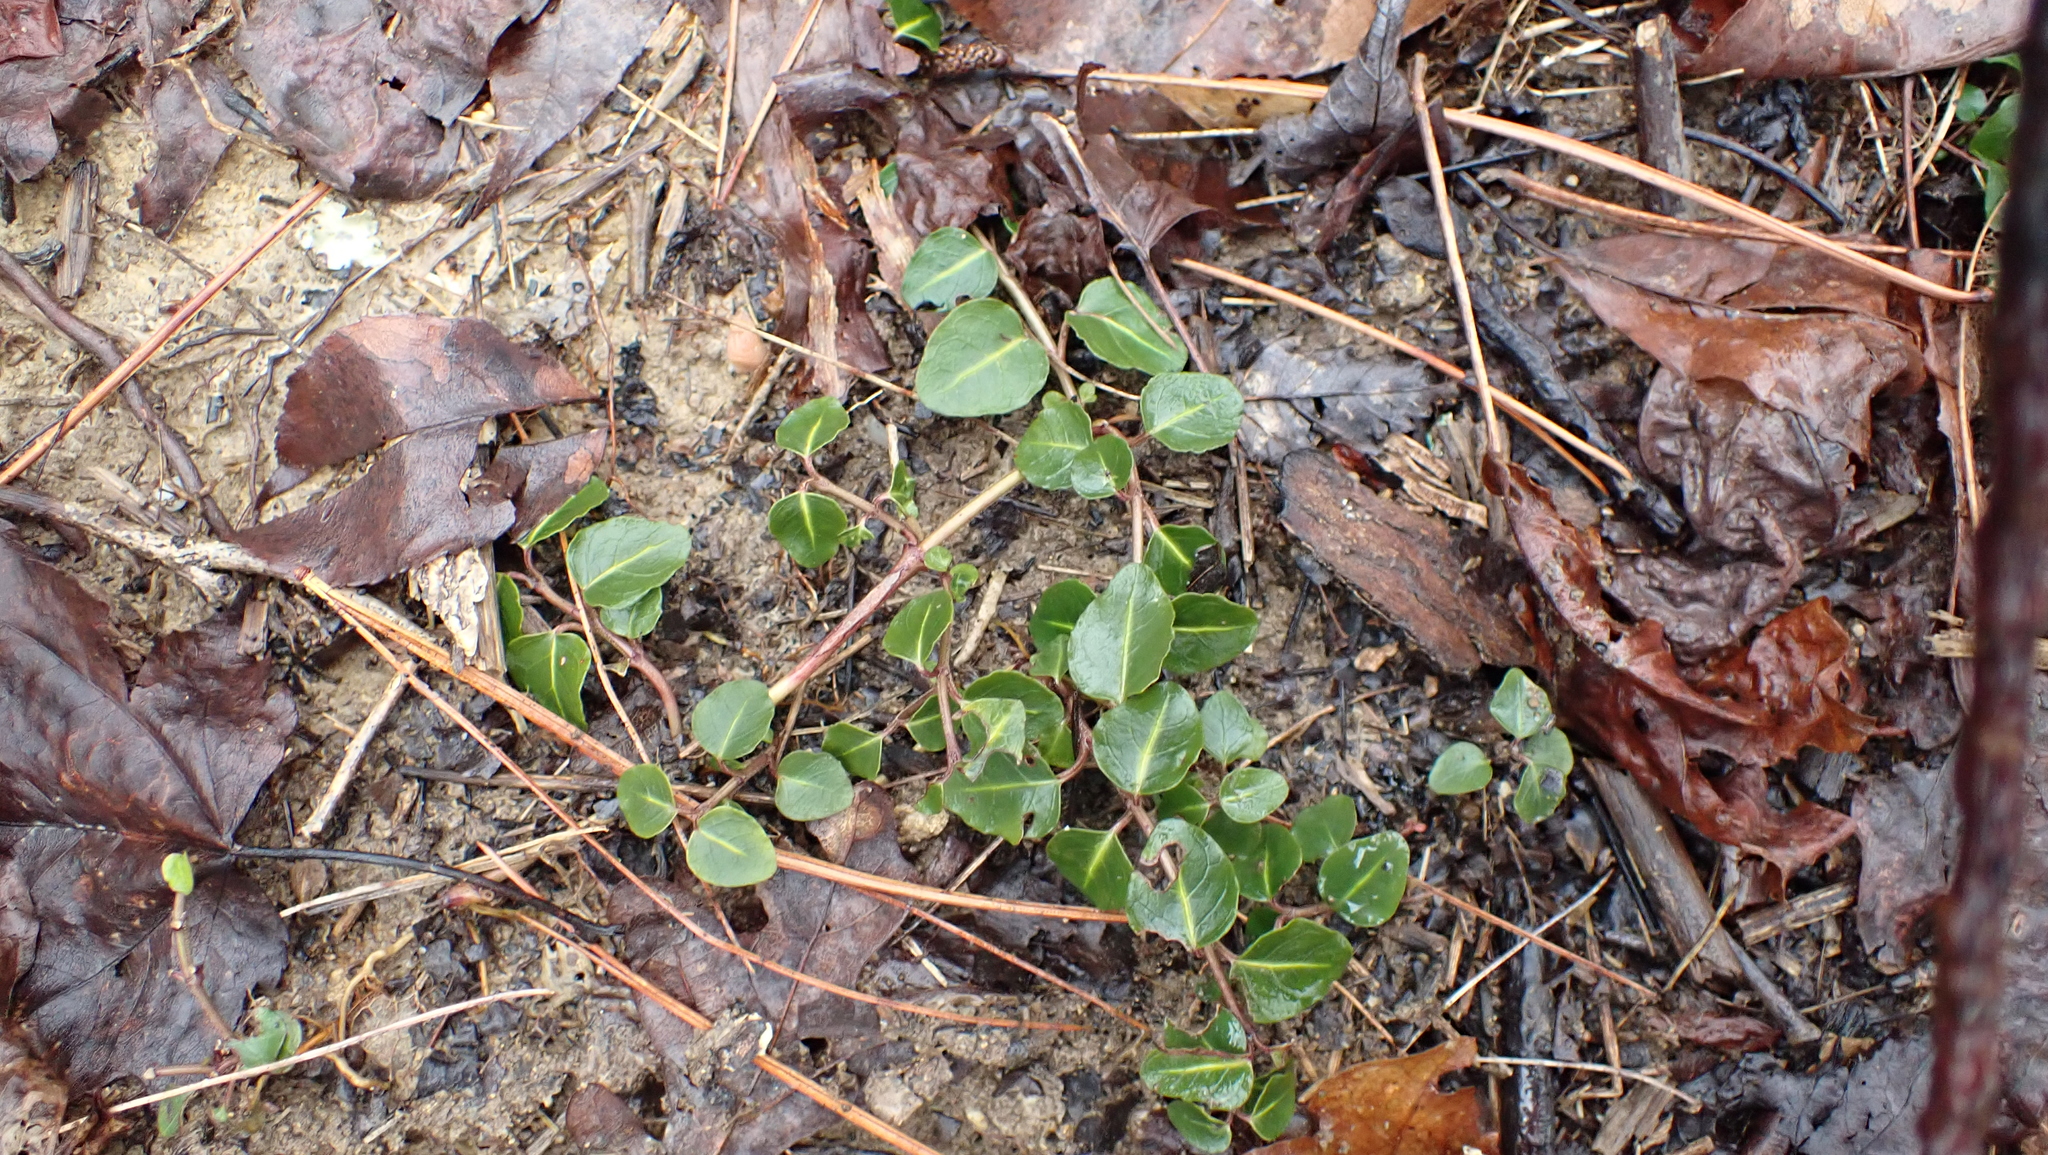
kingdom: Plantae
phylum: Tracheophyta
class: Magnoliopsida
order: Gentianales
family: Rubiaceae
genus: Mitchella
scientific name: Mitchella repens
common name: Partridge-berry
